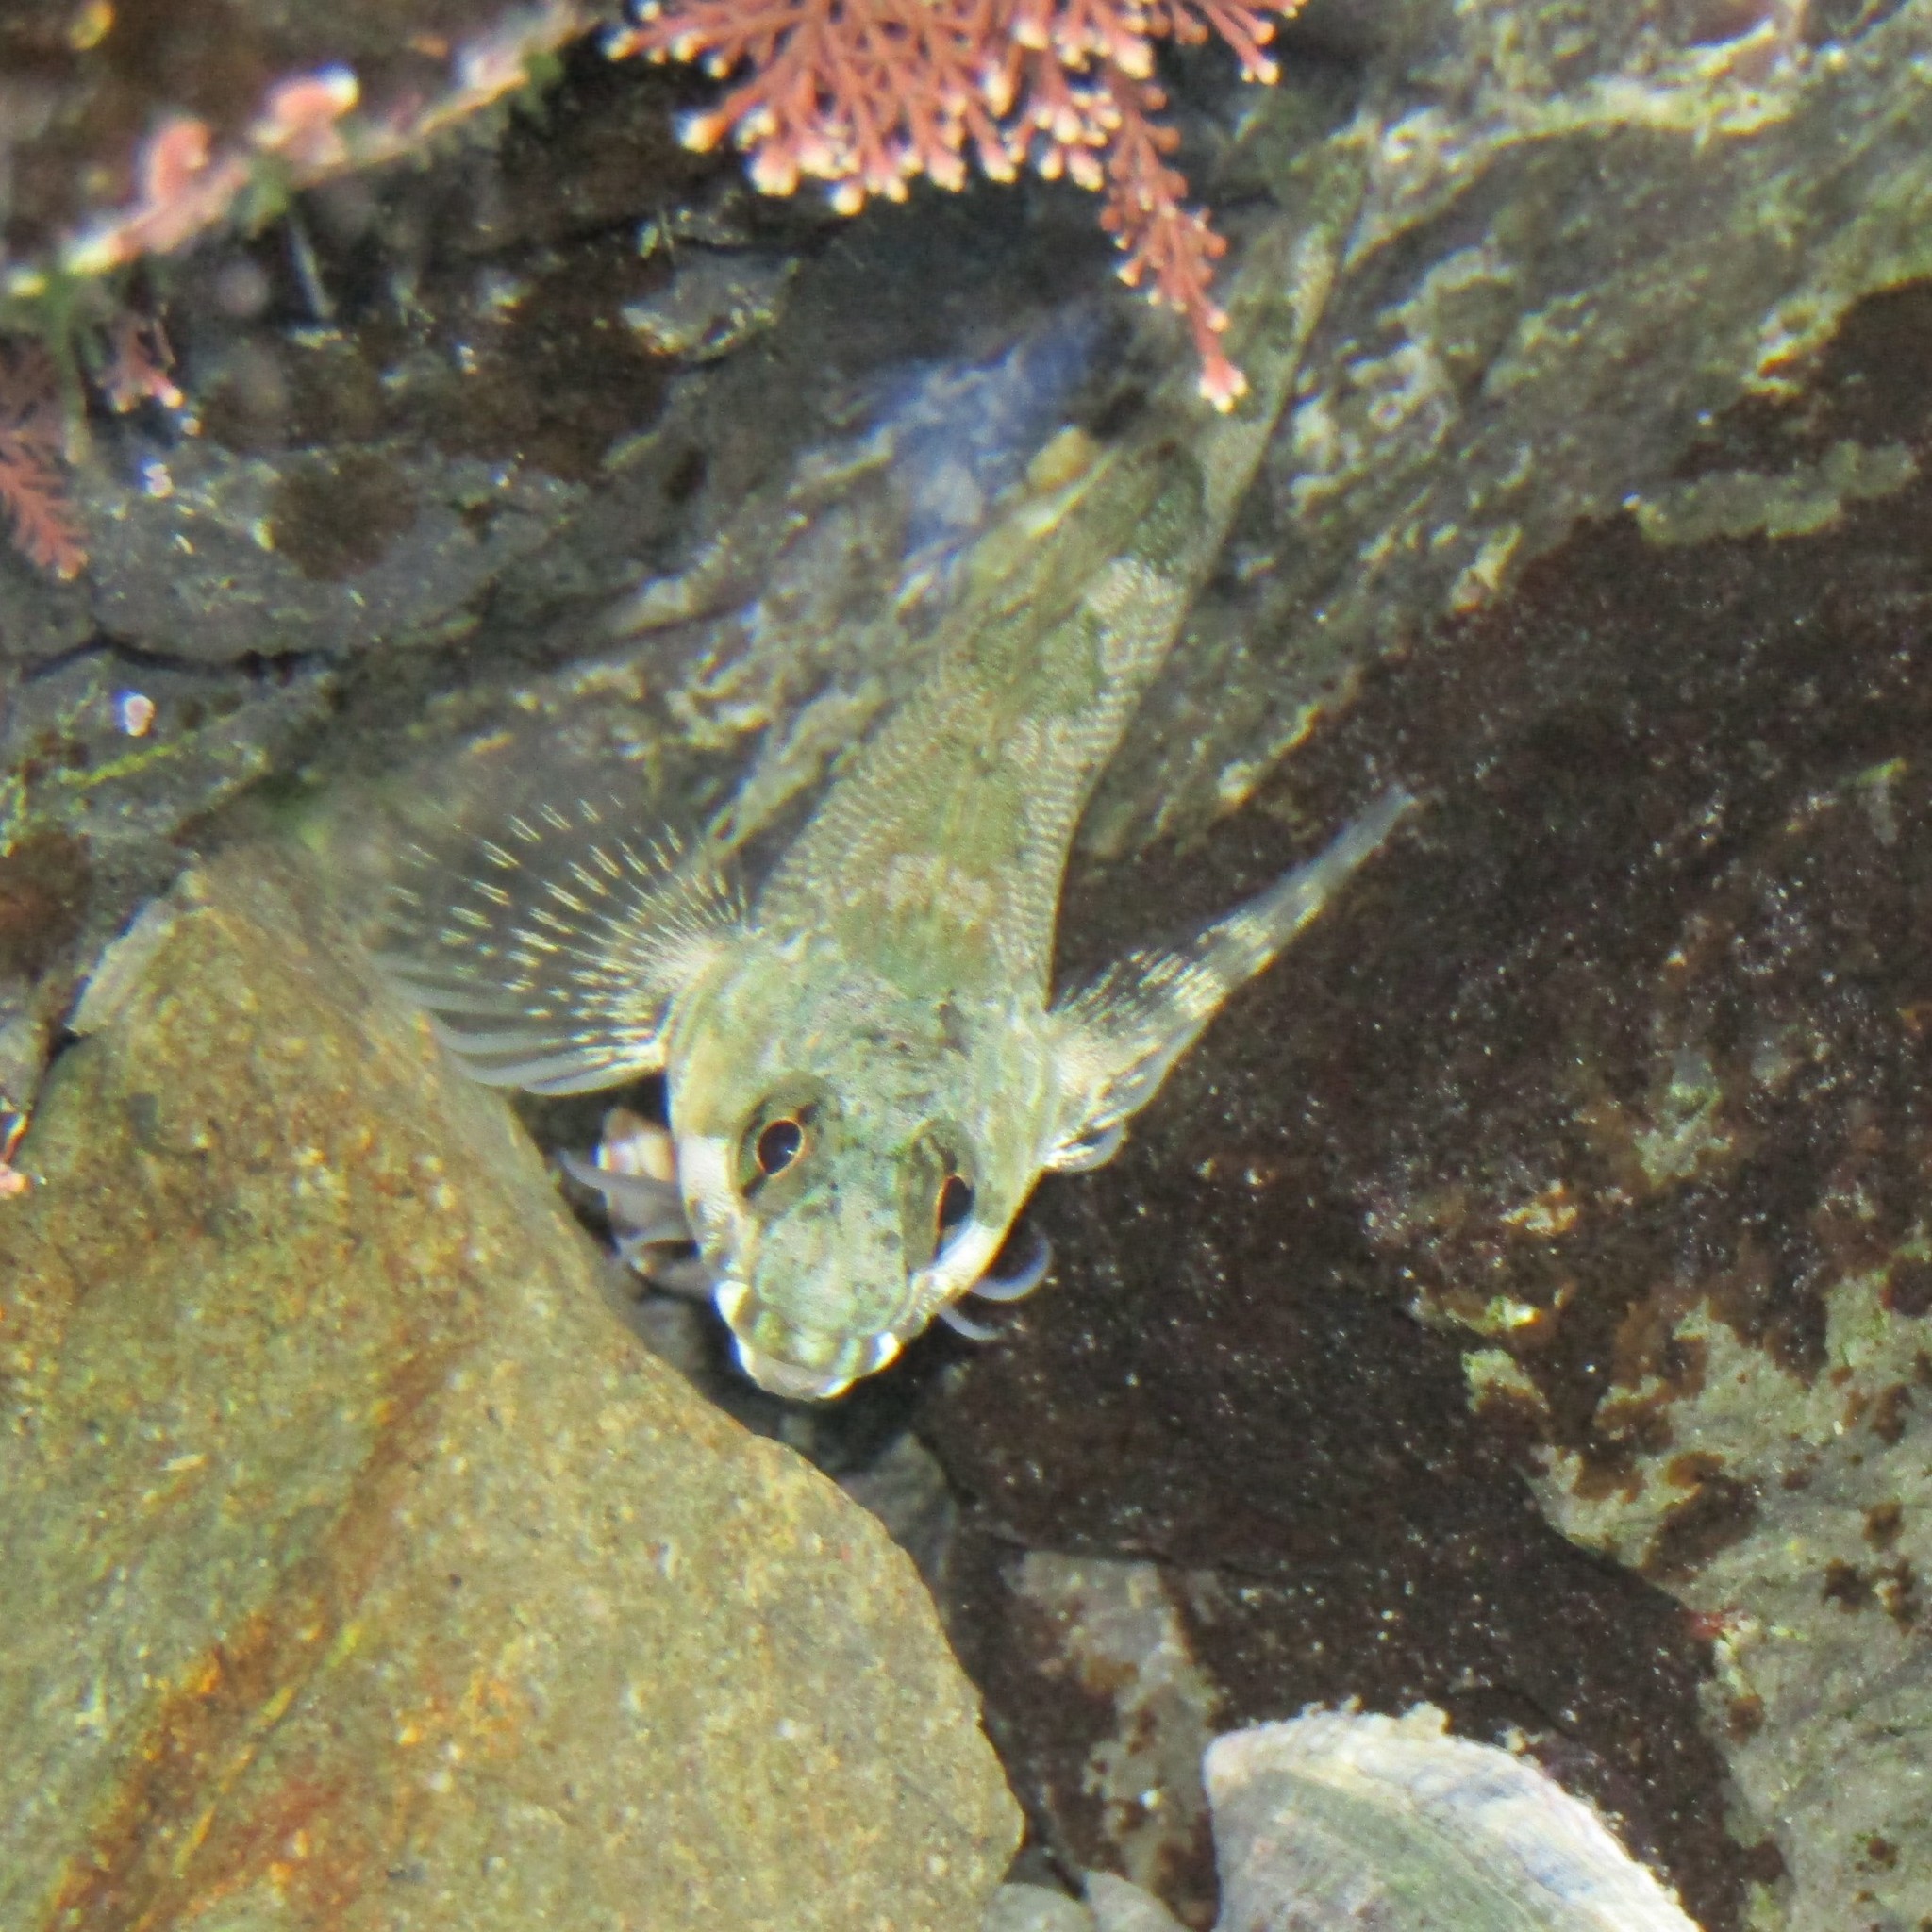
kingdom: Animalia
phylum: Chordata
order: Perciformes
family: Tripterygiidae
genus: Bellapiscis
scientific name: Bellapiscis medius
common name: Twister
